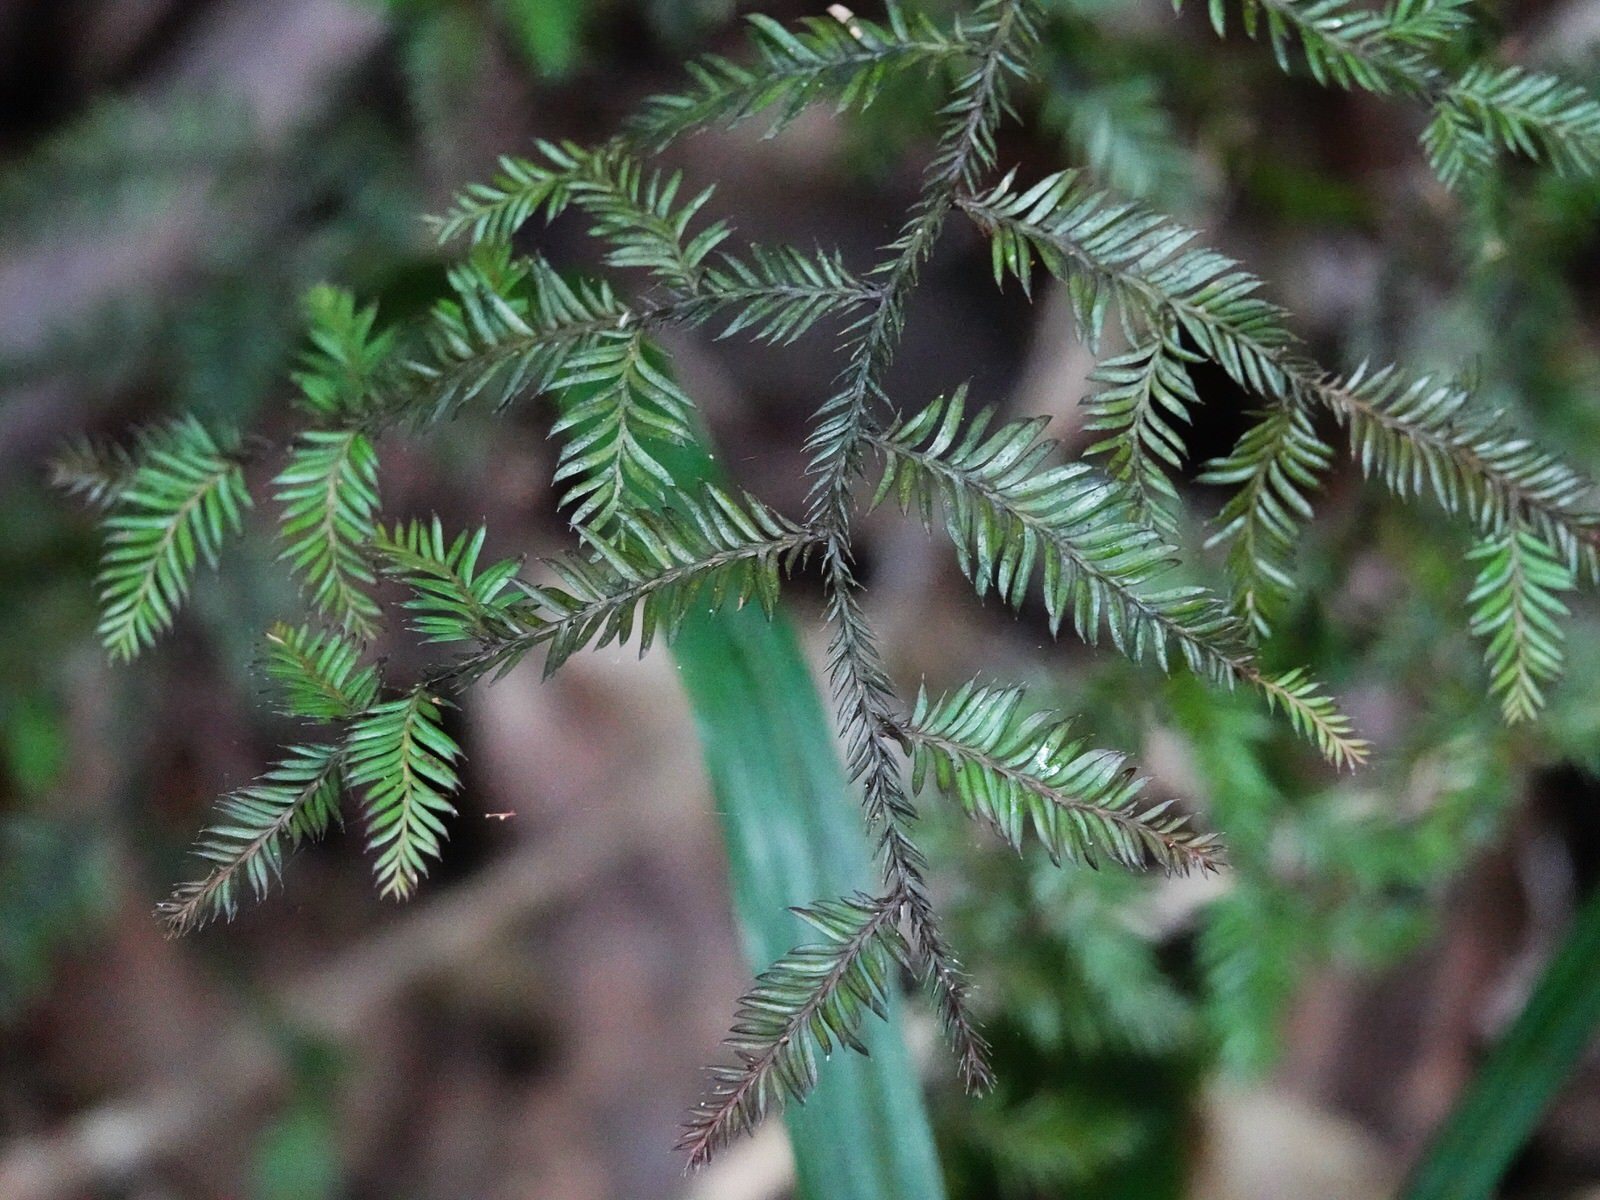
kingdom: Plantae
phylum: Tracheophyta
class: Pinopsida
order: Pinales
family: Podocarpaceae
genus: Dacrycarpus
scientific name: Dacrycarpus dacrydioides
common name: White pine
